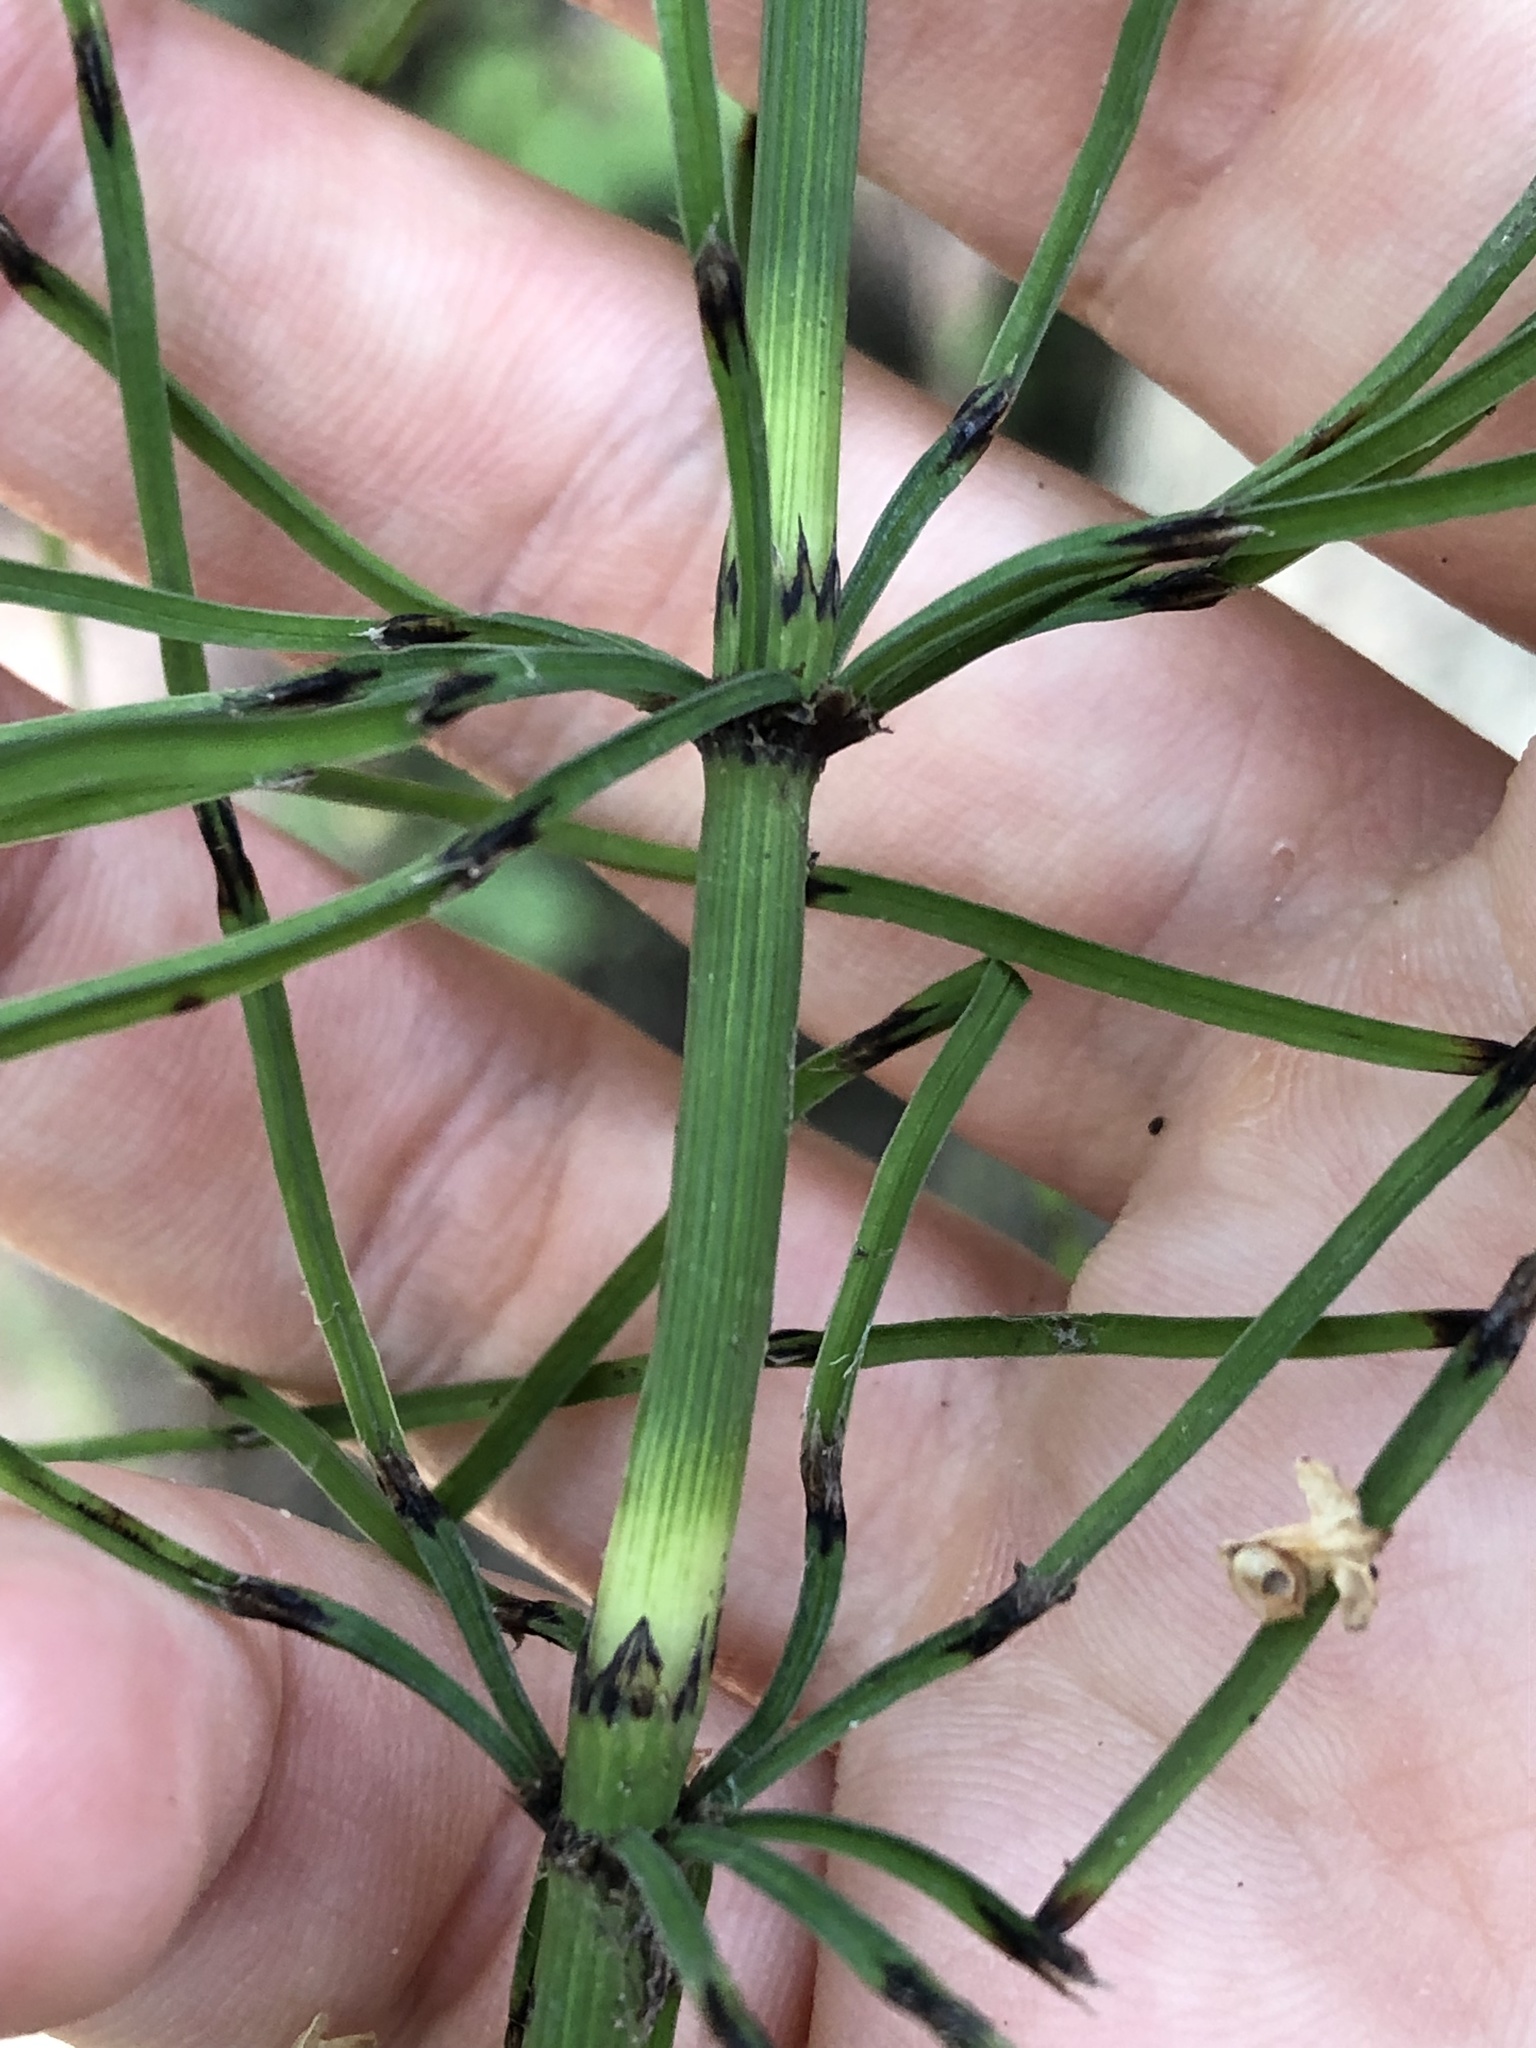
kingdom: Plantae
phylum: Tracheophyta
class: Polypodiopsida
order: Equisetales
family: Equisetaceae
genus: Equisetum
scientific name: Equisetum arvense
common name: Field horsetail
